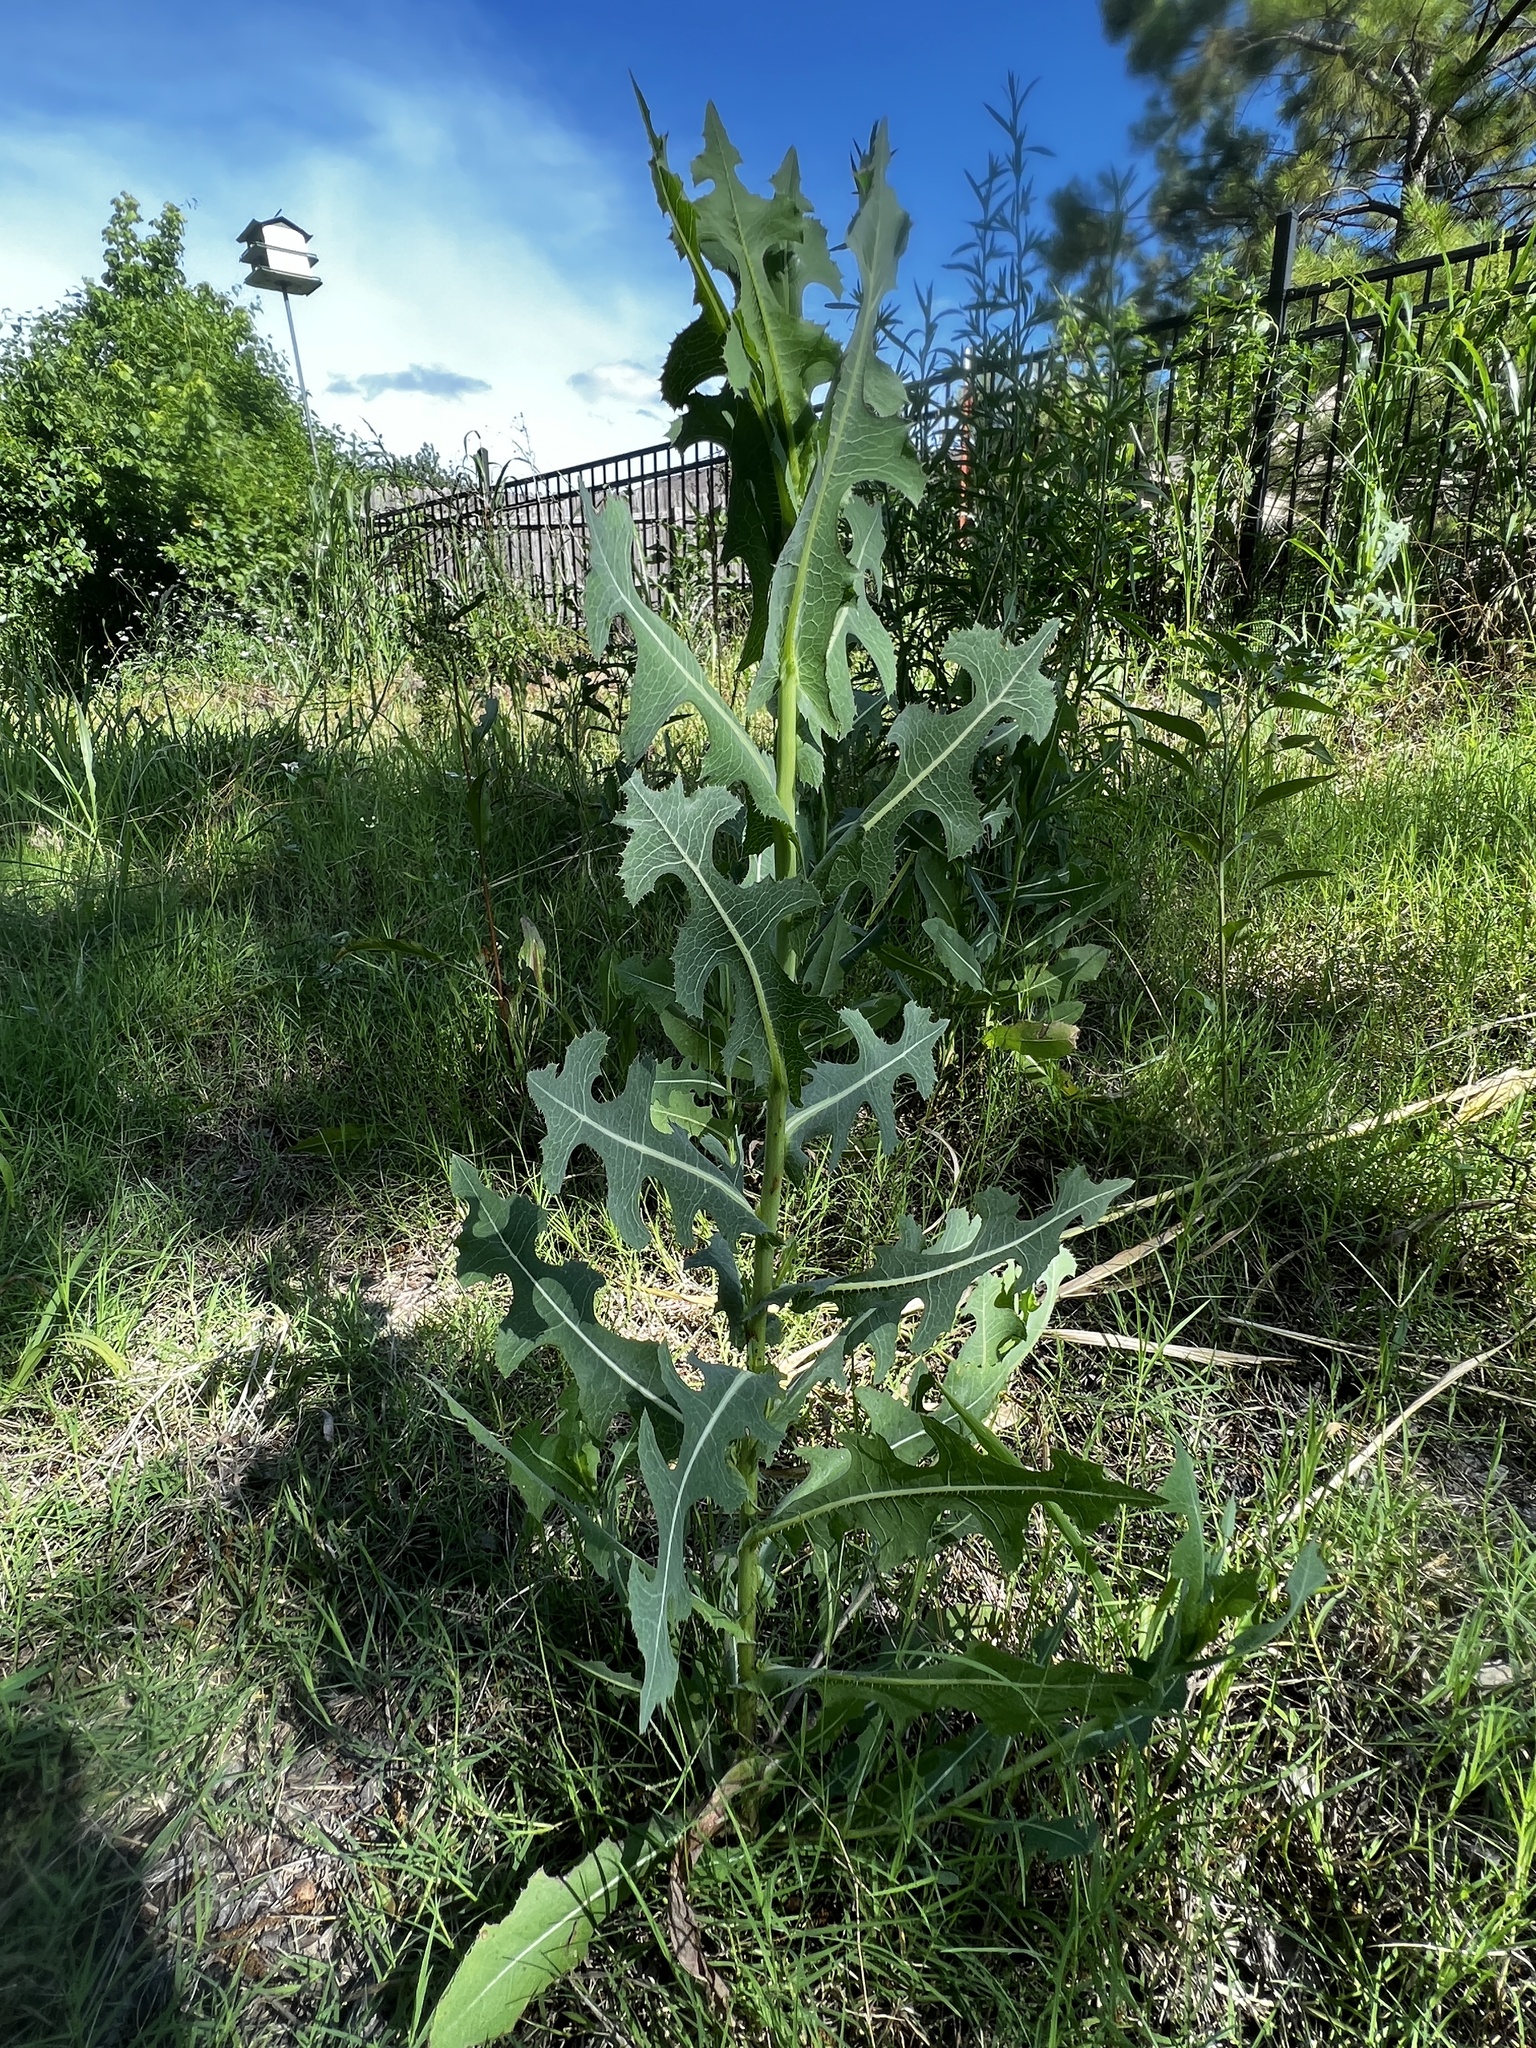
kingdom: Plantae
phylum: Tracheophyta
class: Magnoliopsida
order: Asterales
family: Asteraceae
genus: Lactuca
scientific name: Lactuca serriola
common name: Prickly lettuce
